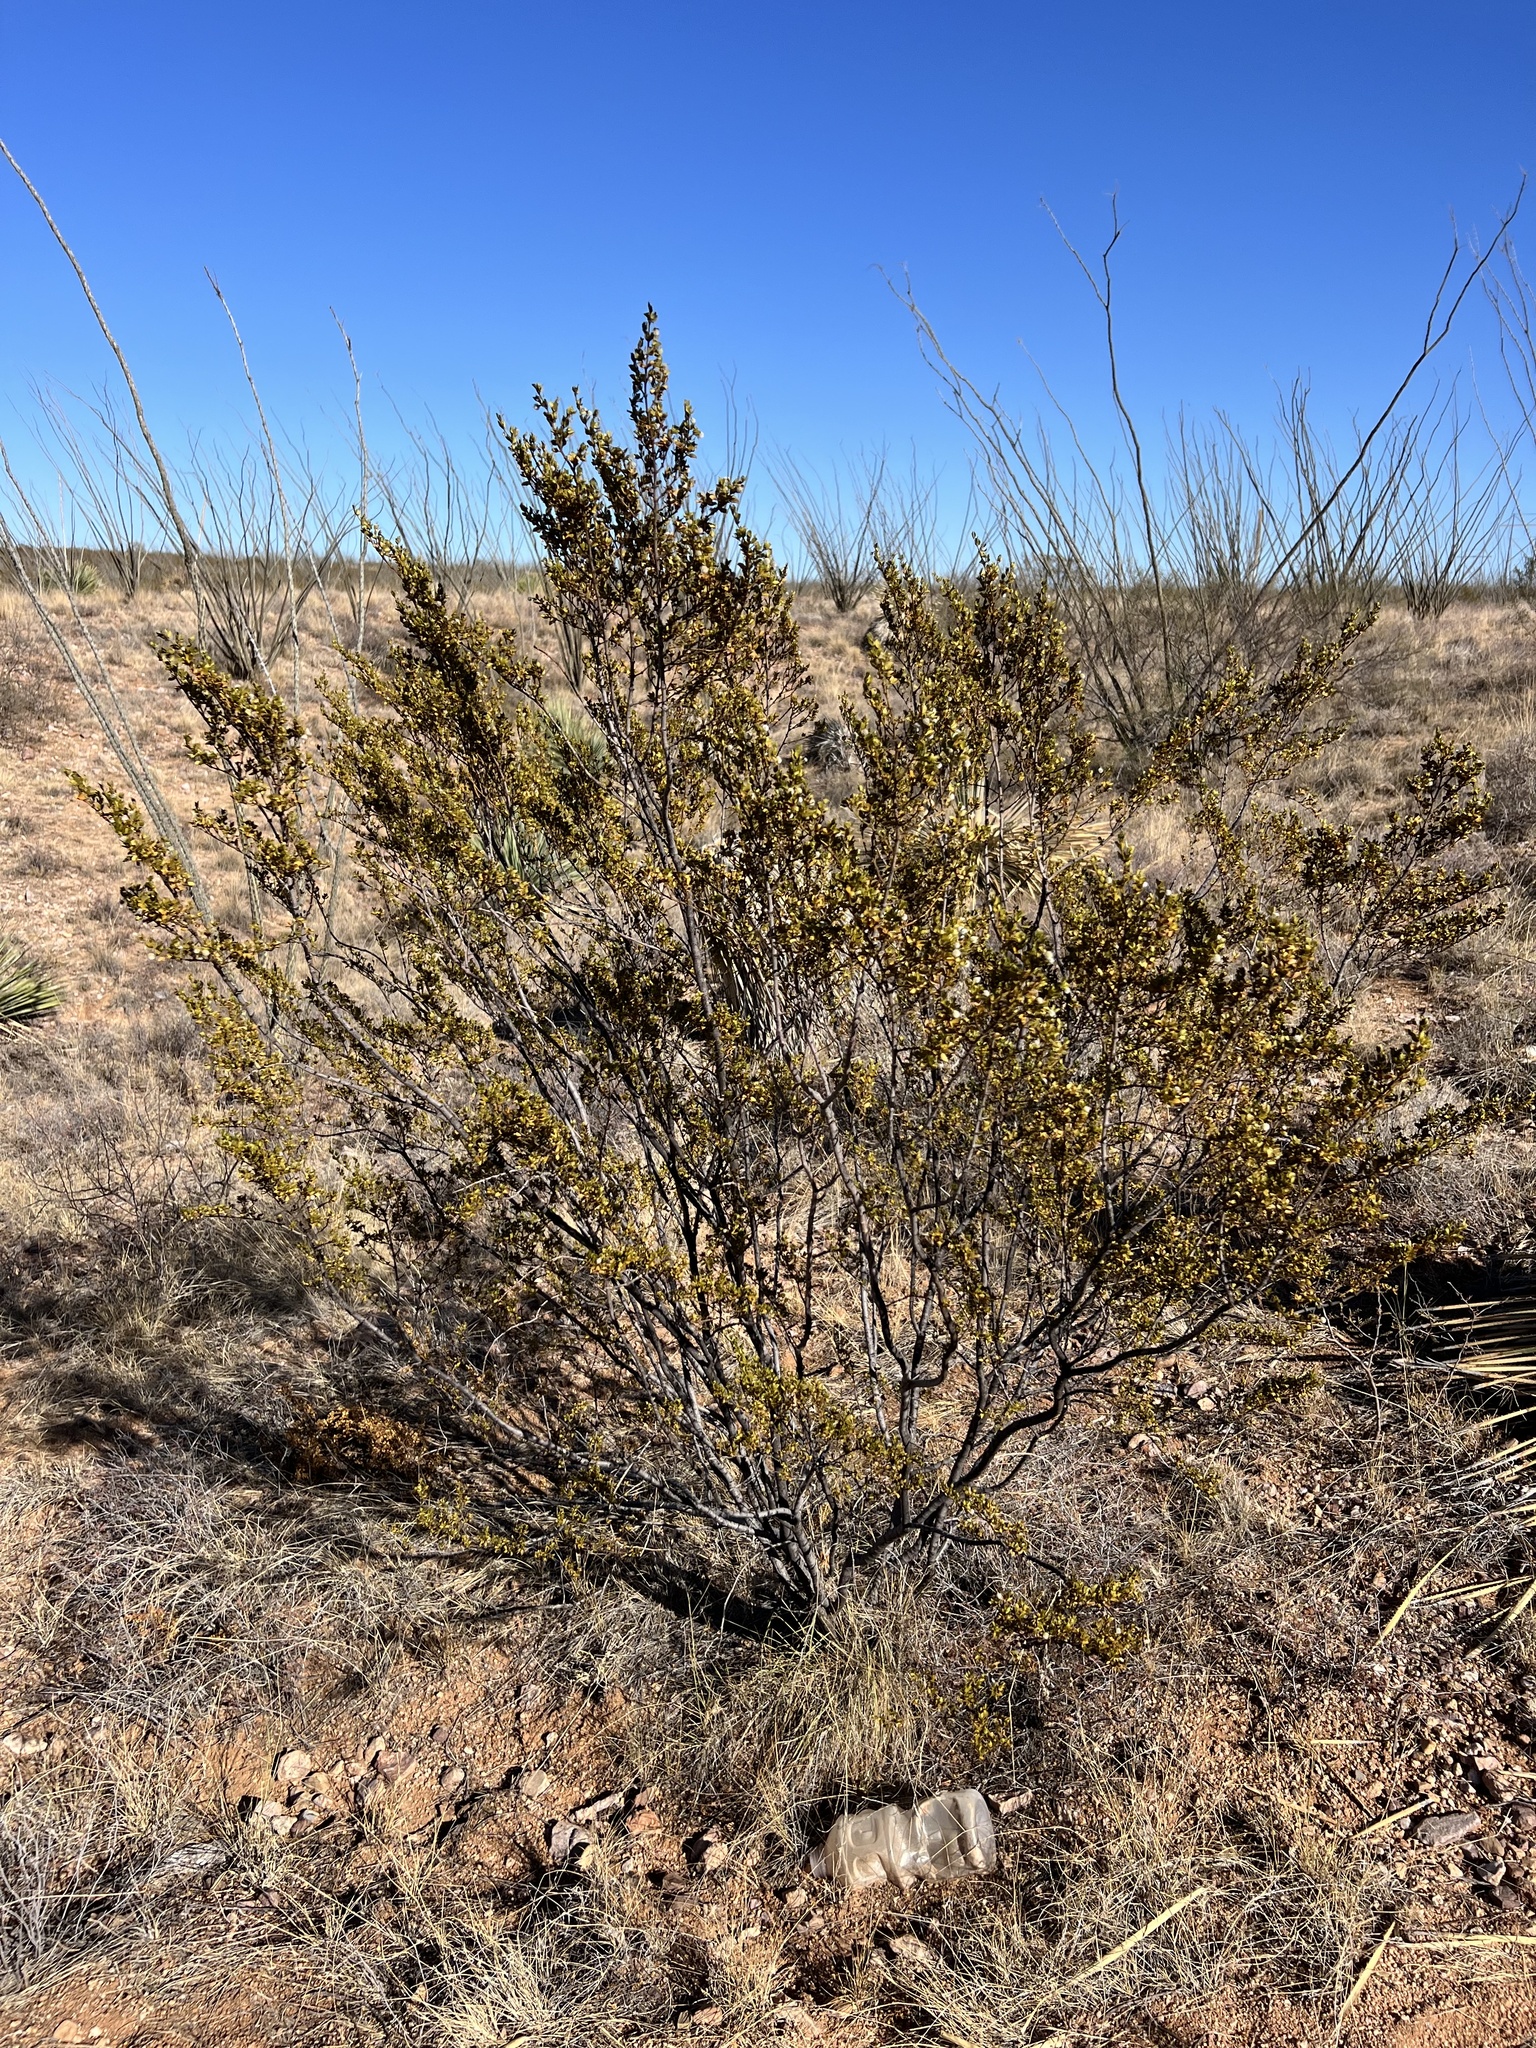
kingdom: Plantae
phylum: Tracheophyta
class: Magnoliopsida
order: Zygophyllales
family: Zygophyllaceae
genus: Larrea
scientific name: Larrea tridentata
